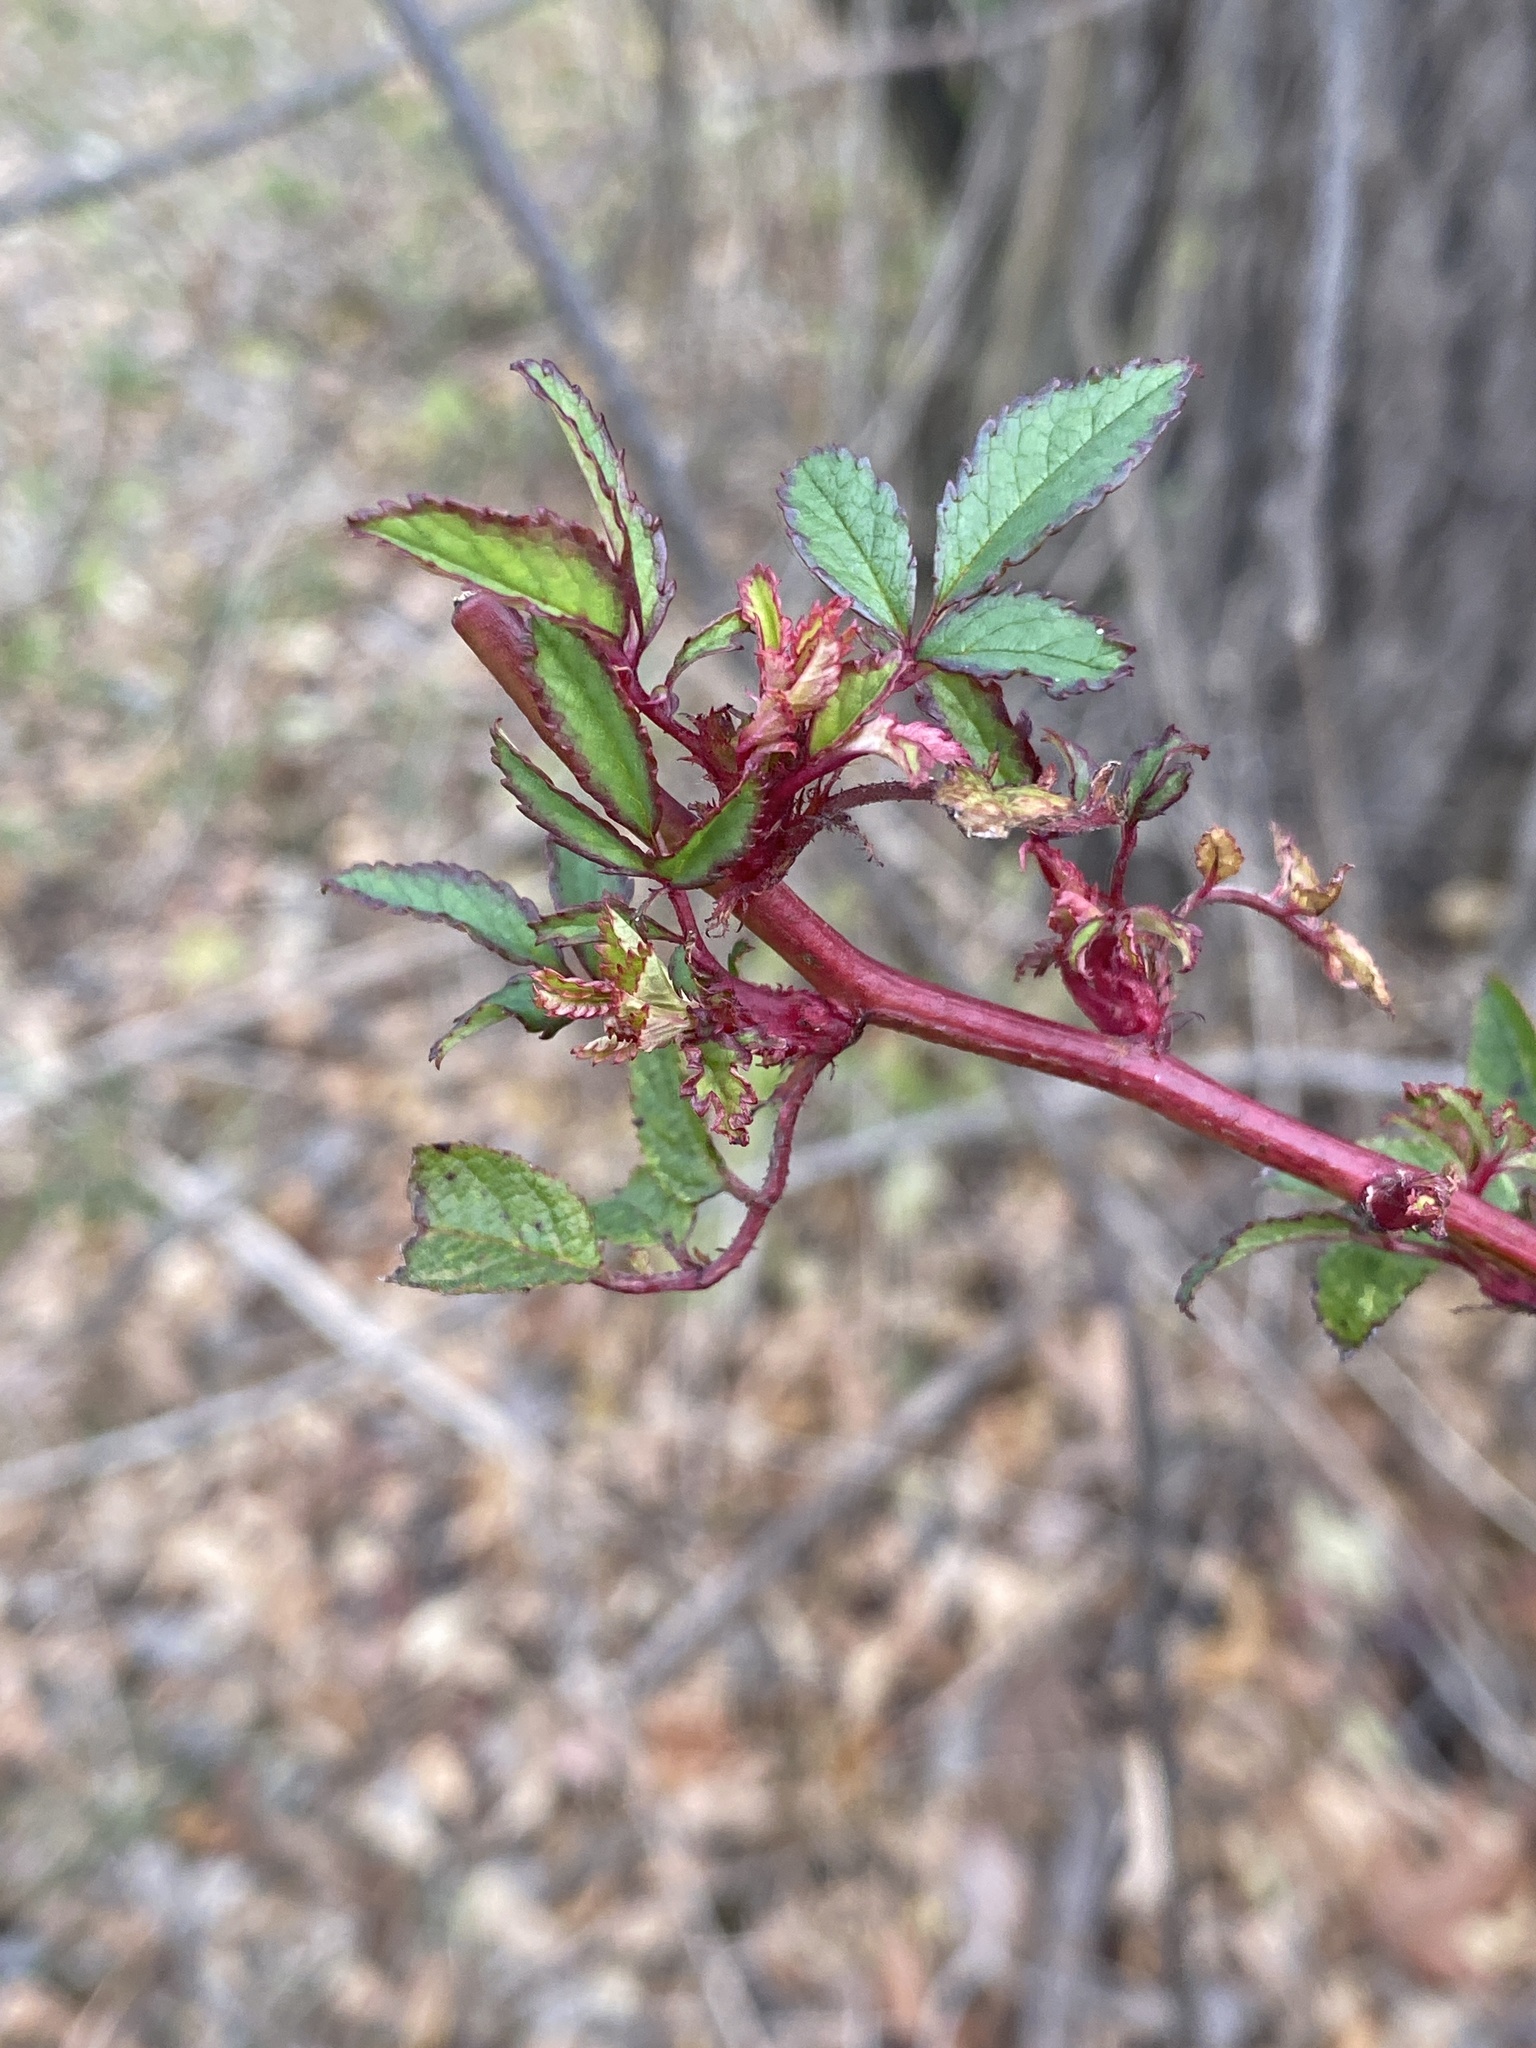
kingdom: Viruses
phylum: Negarnaviricota
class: Ellioviricetes
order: Bunyavirales
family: Fimoviridae
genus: Emaravirus
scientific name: Emaravirus rosae
